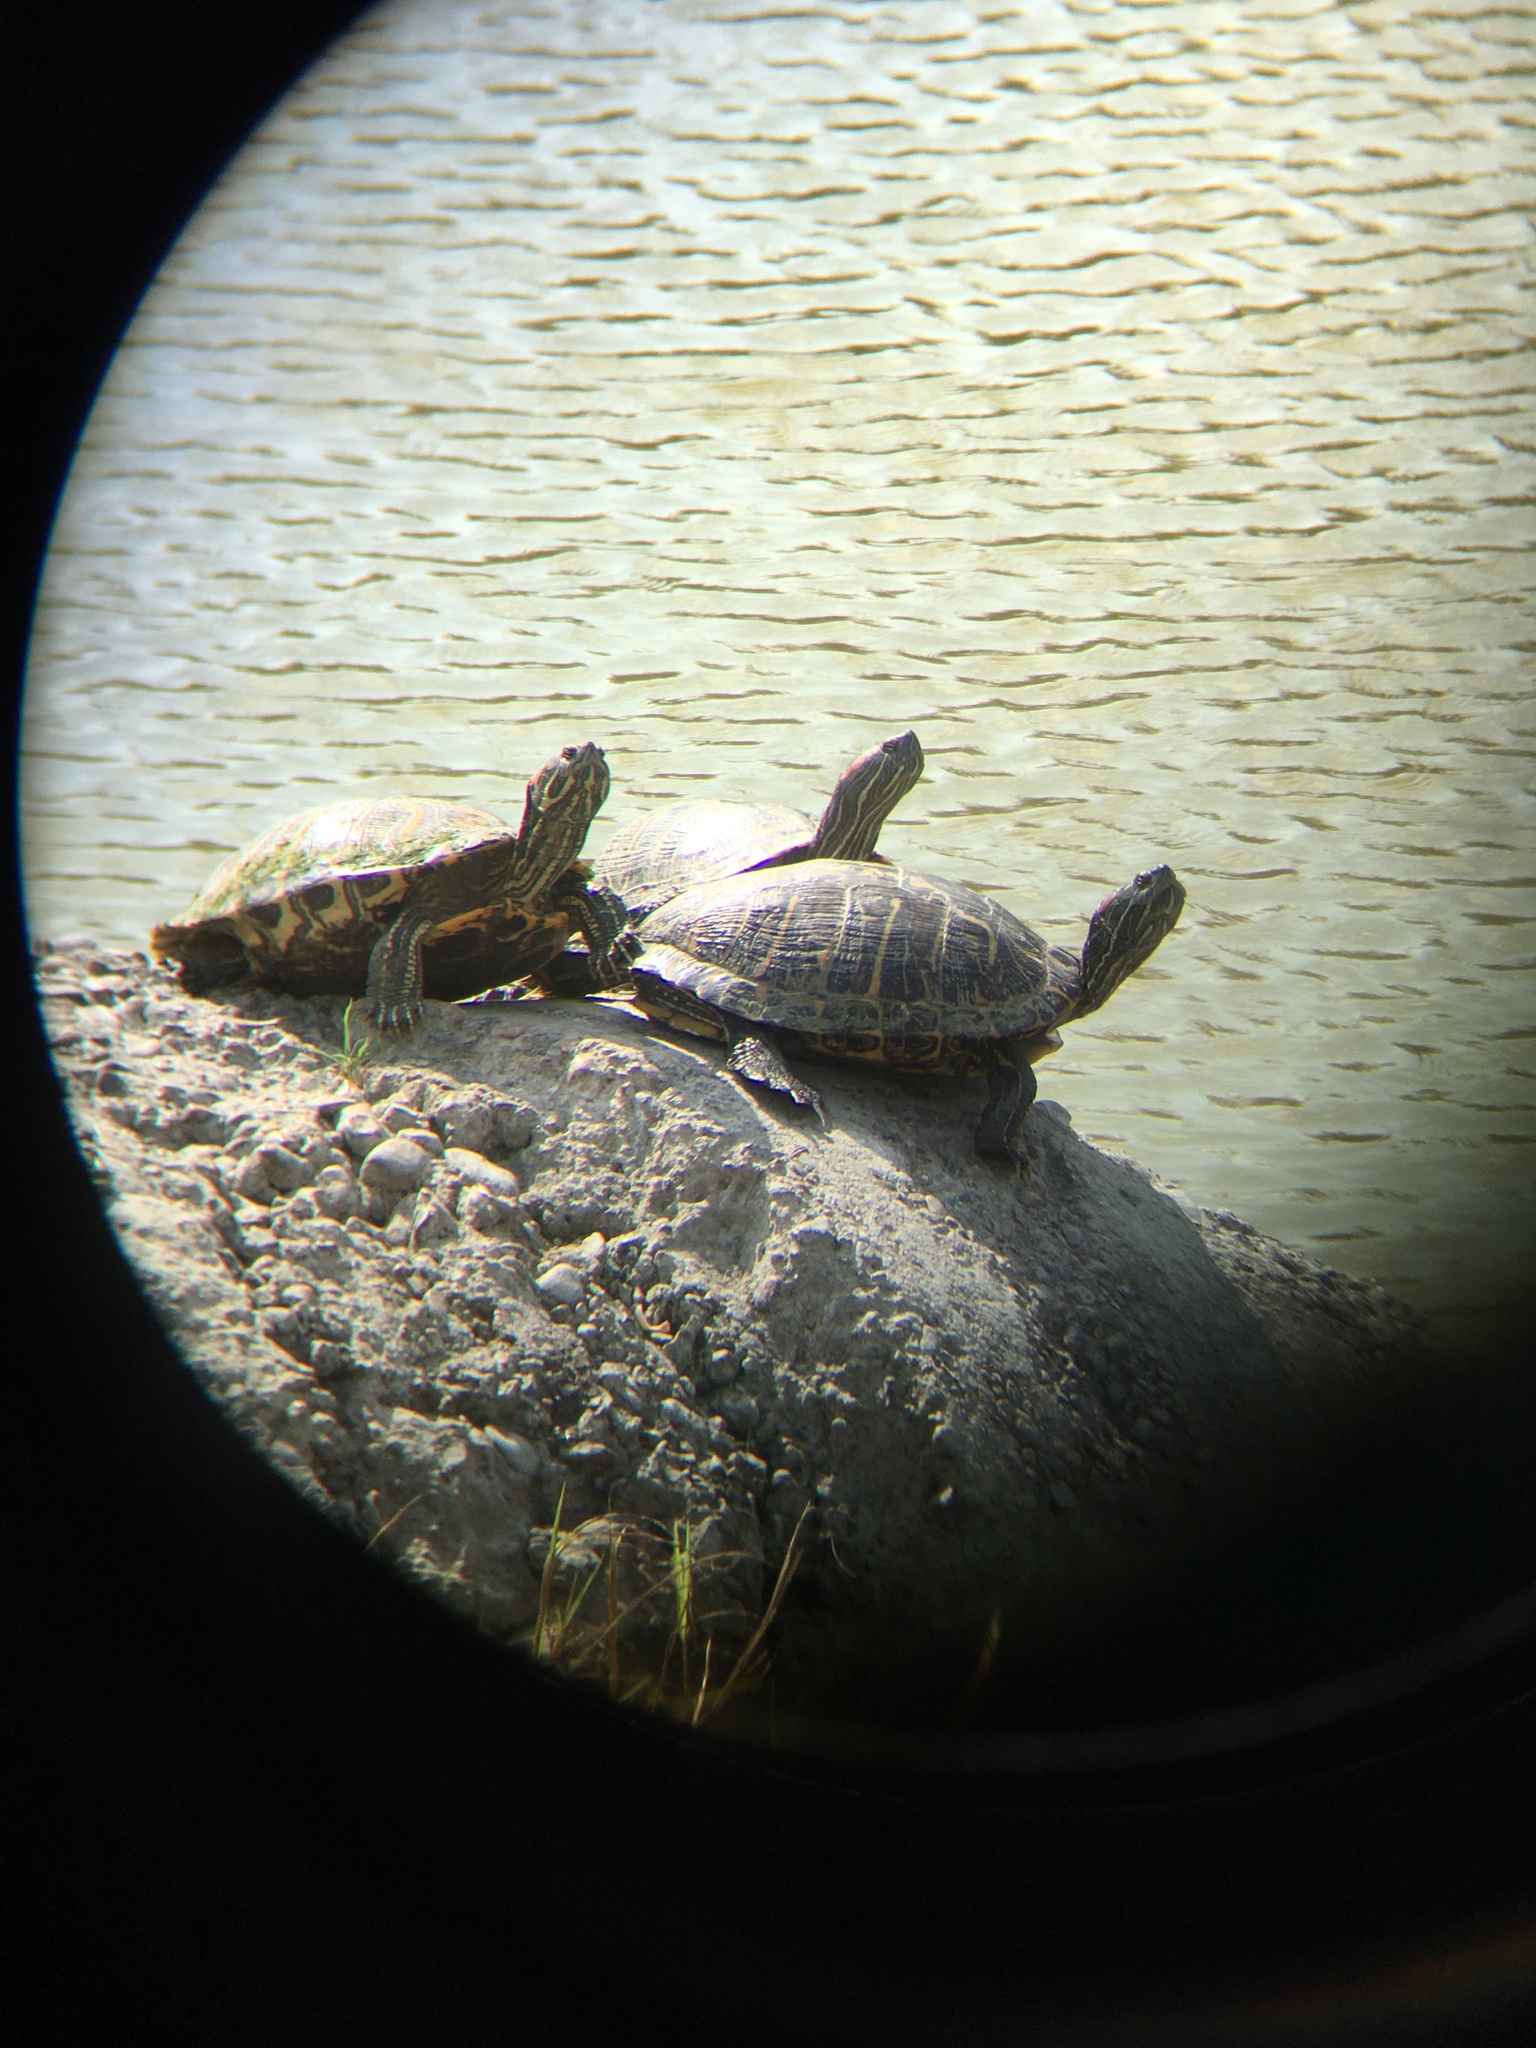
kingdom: Animalia
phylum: Chordata
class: Testudines
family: Emydidae
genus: Trachemys
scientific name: Trachemys scripta
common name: Slider
